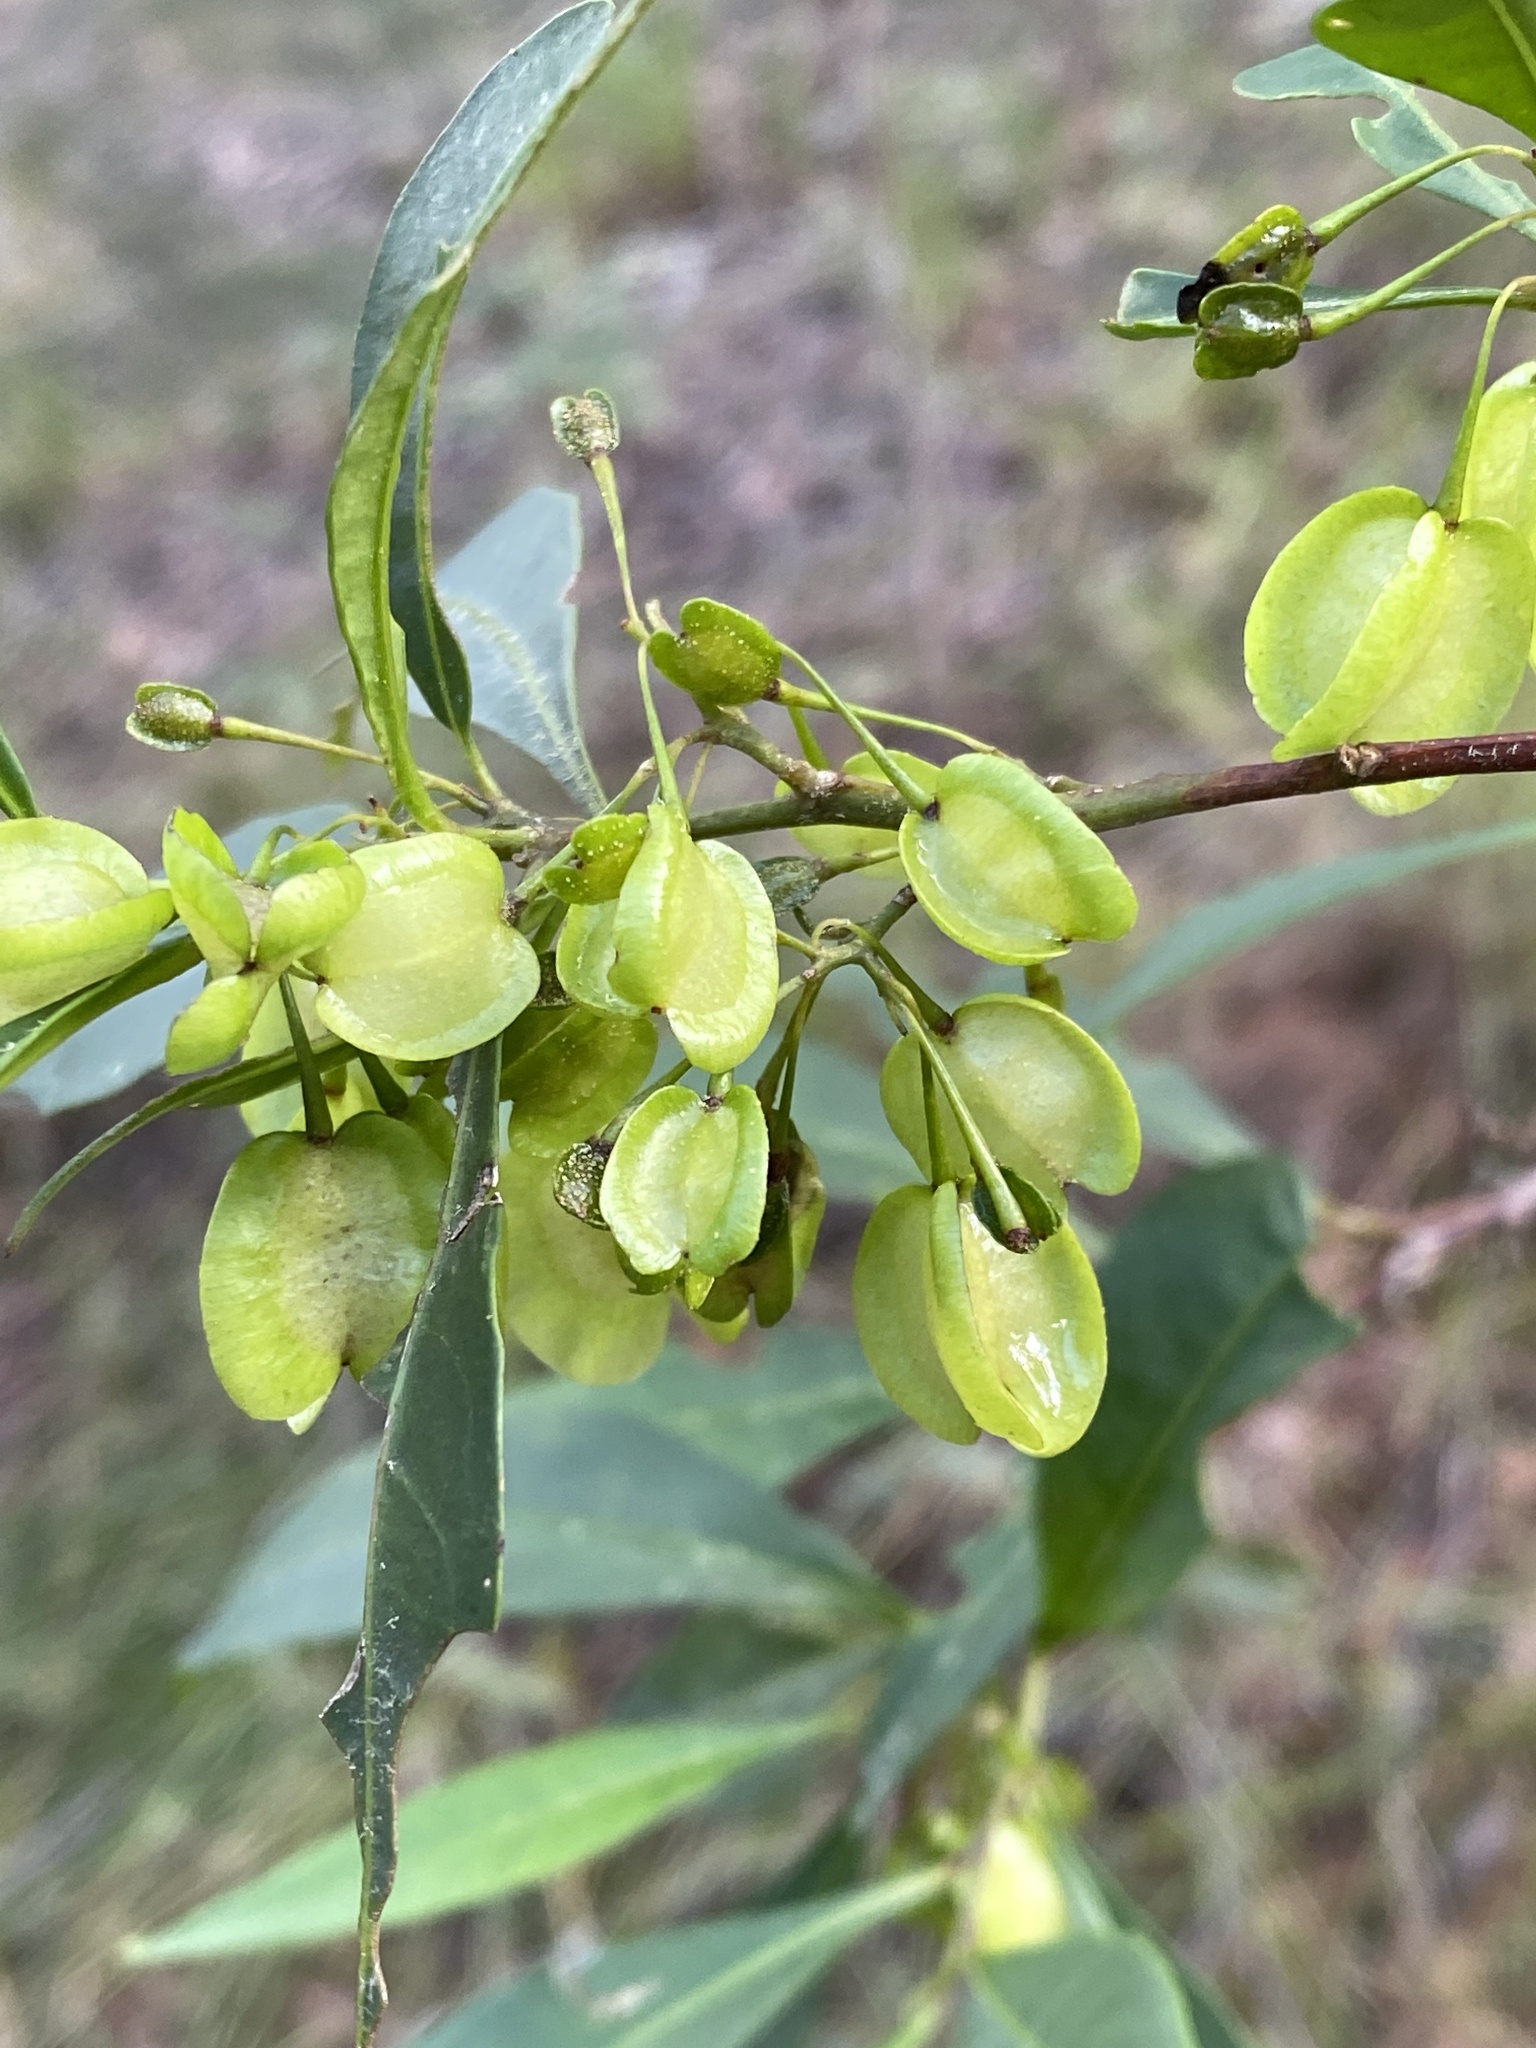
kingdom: Plantae
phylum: Tracheophyta
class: Magnoliopsida
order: Sapindales
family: Sapindaceae
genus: Dodonaea
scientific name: Dodonaea triquetra
